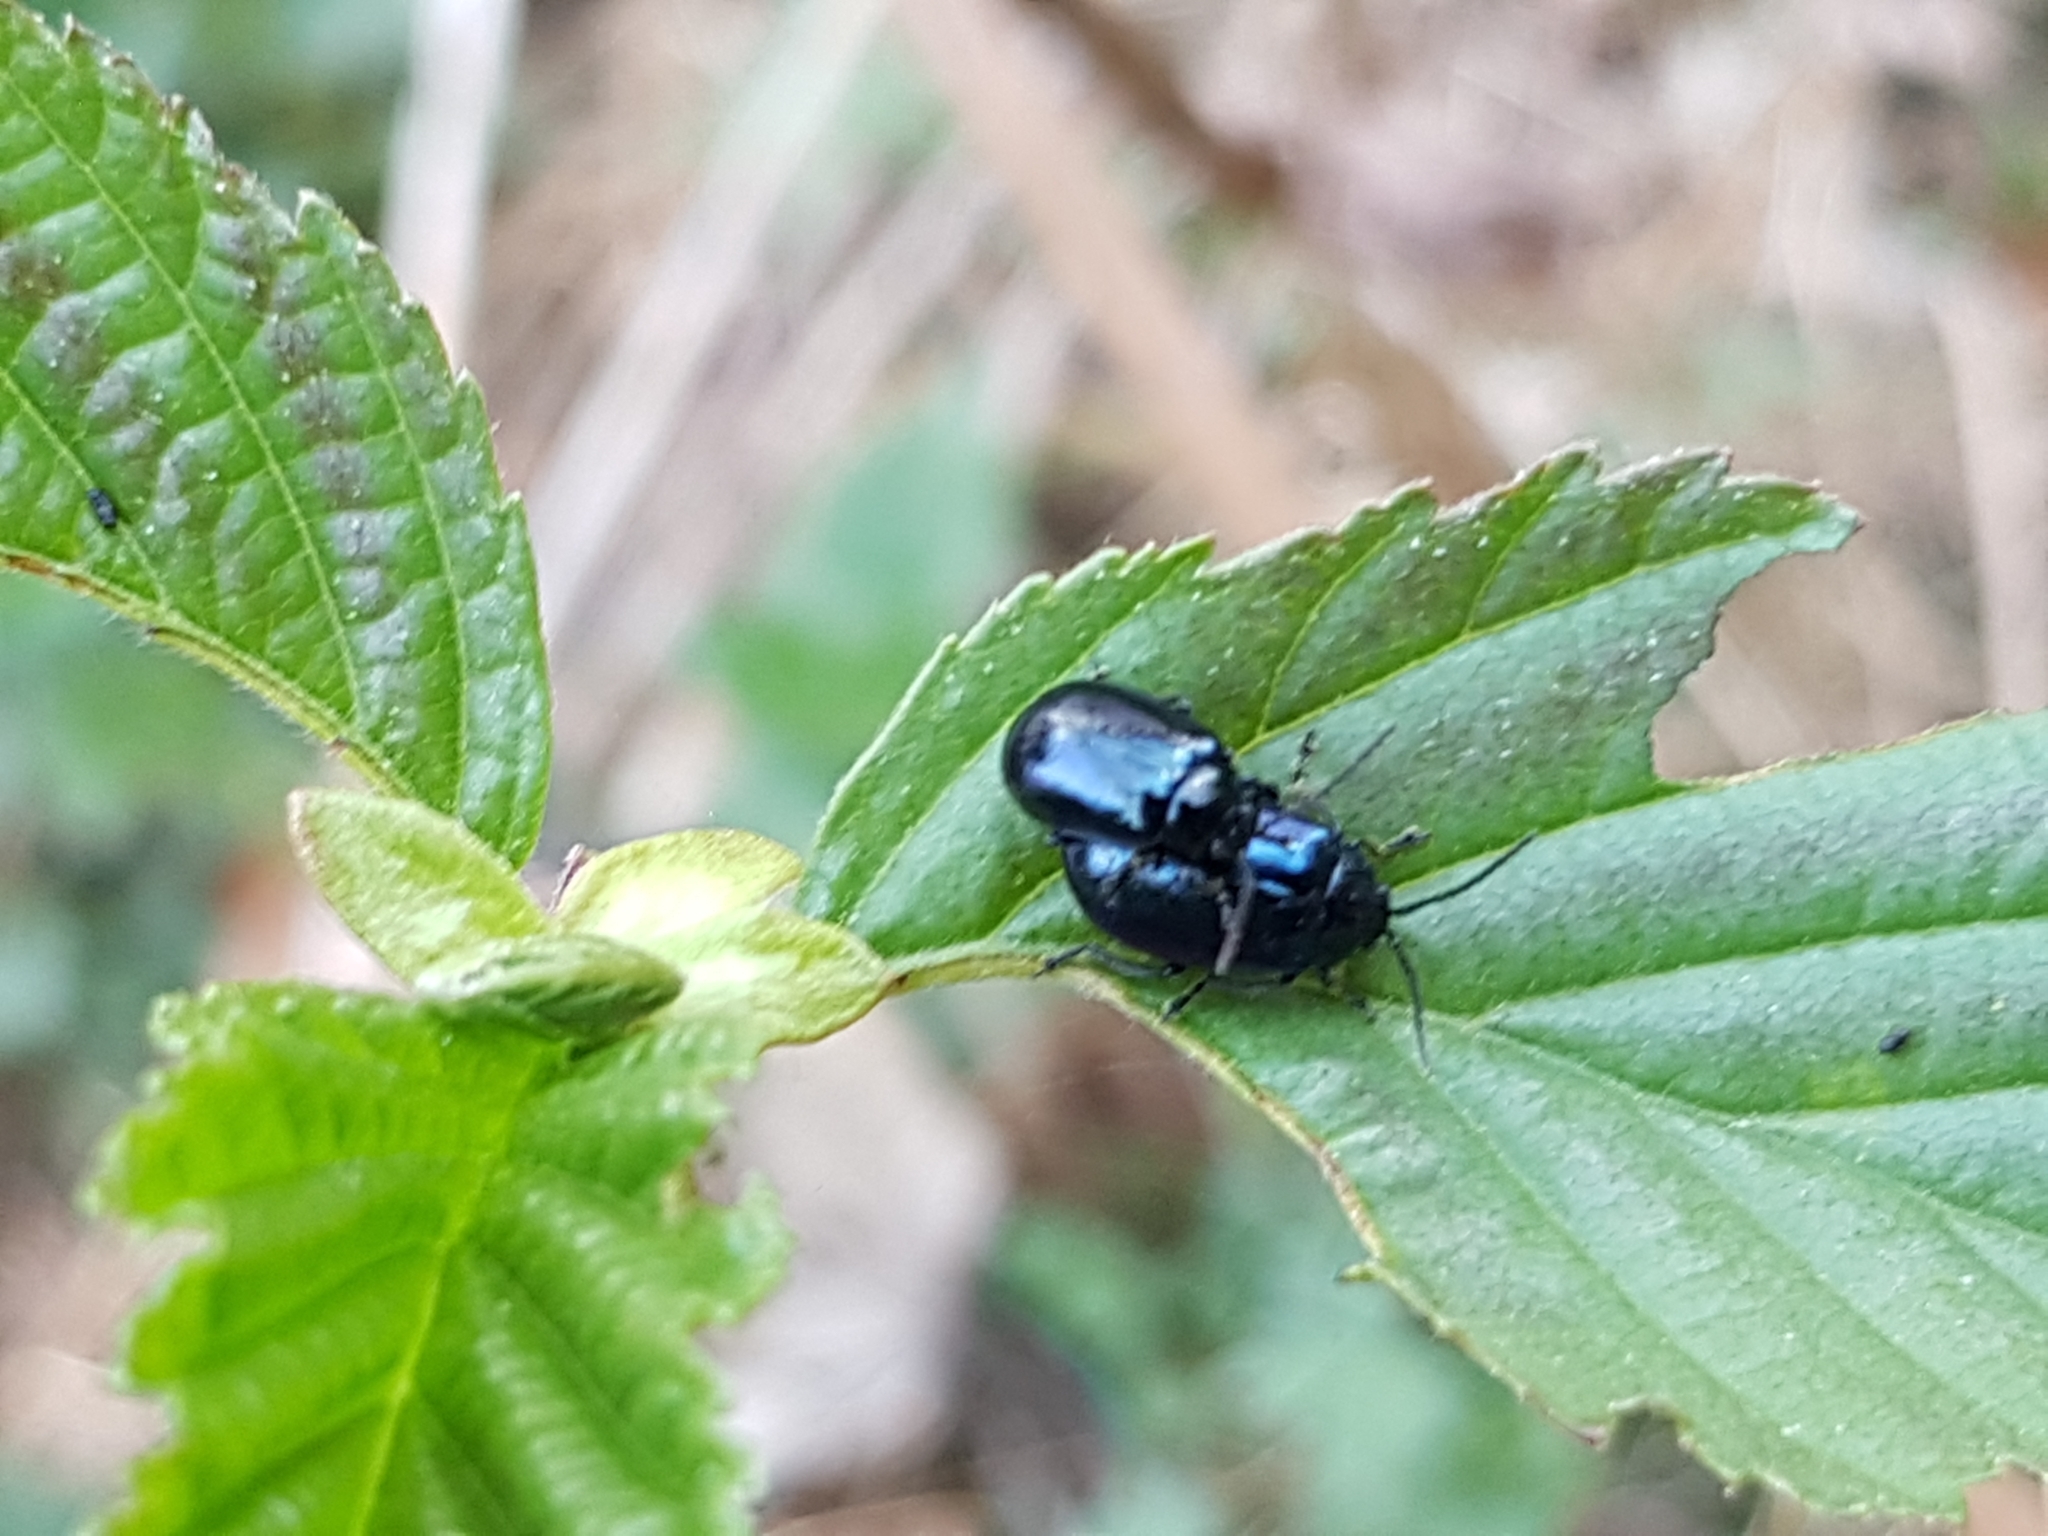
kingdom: Animalia
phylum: Arthropoda
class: Insecta
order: Coleoptera
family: Chrysomelidae
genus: Agelastica
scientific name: Agelastica alni
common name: Alder leaf beetle
